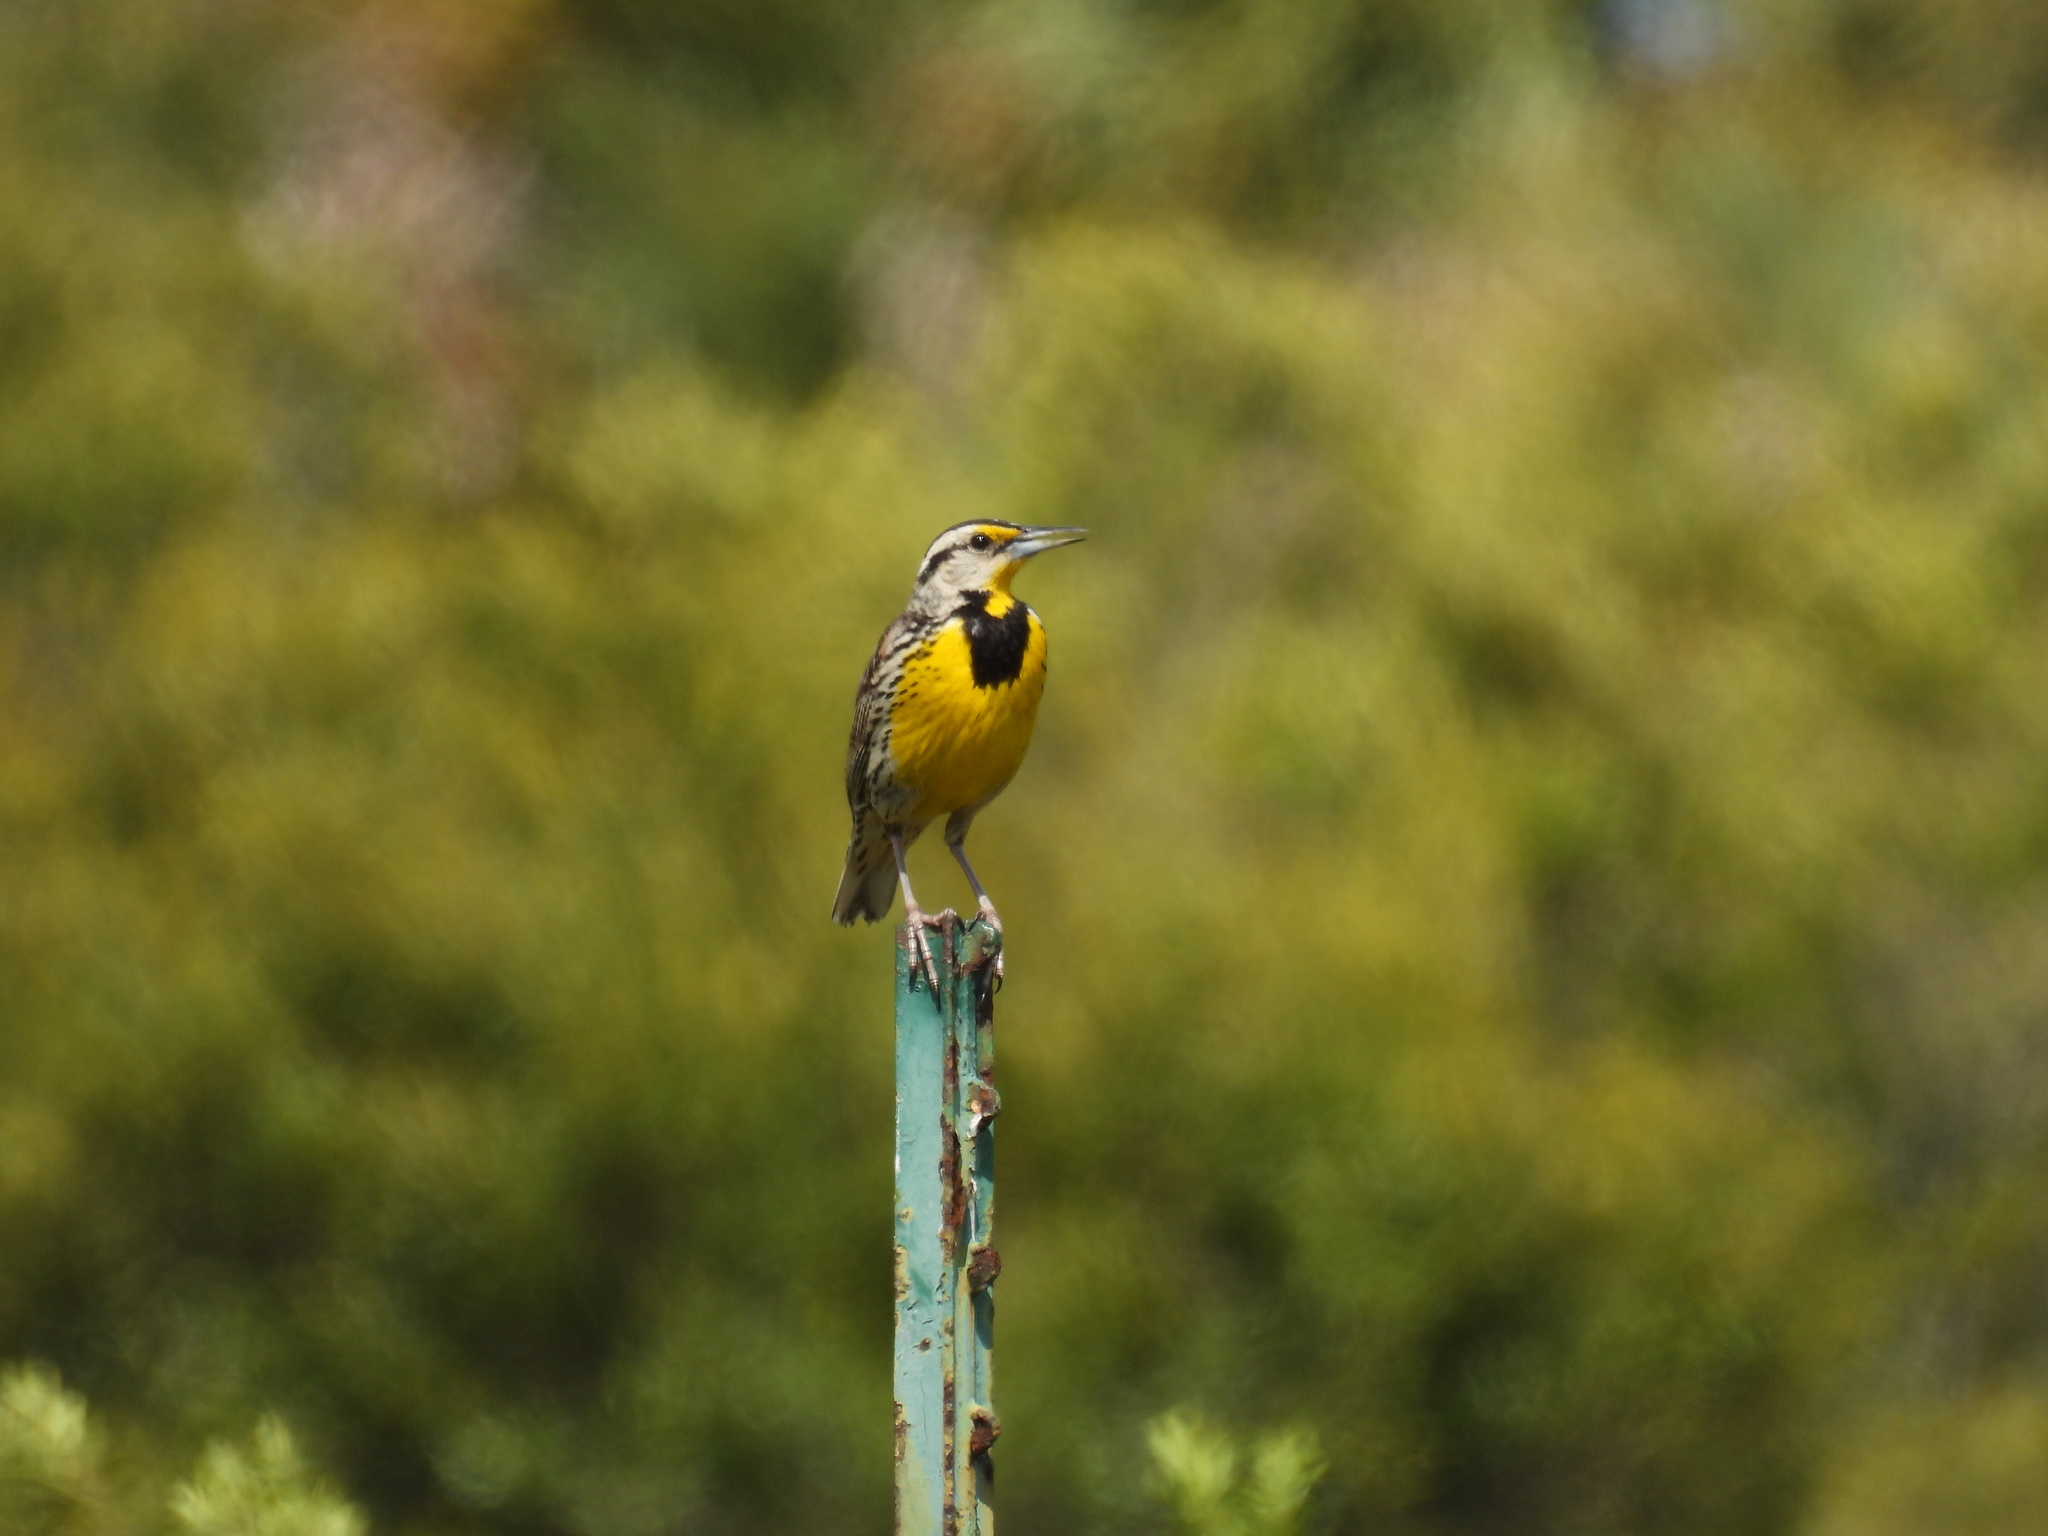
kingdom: Animalia
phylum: Chordata
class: Aves
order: Passeriformes
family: Icteridae
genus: Sturnella
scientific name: Sturnella magna
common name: Eastern meadowlark
